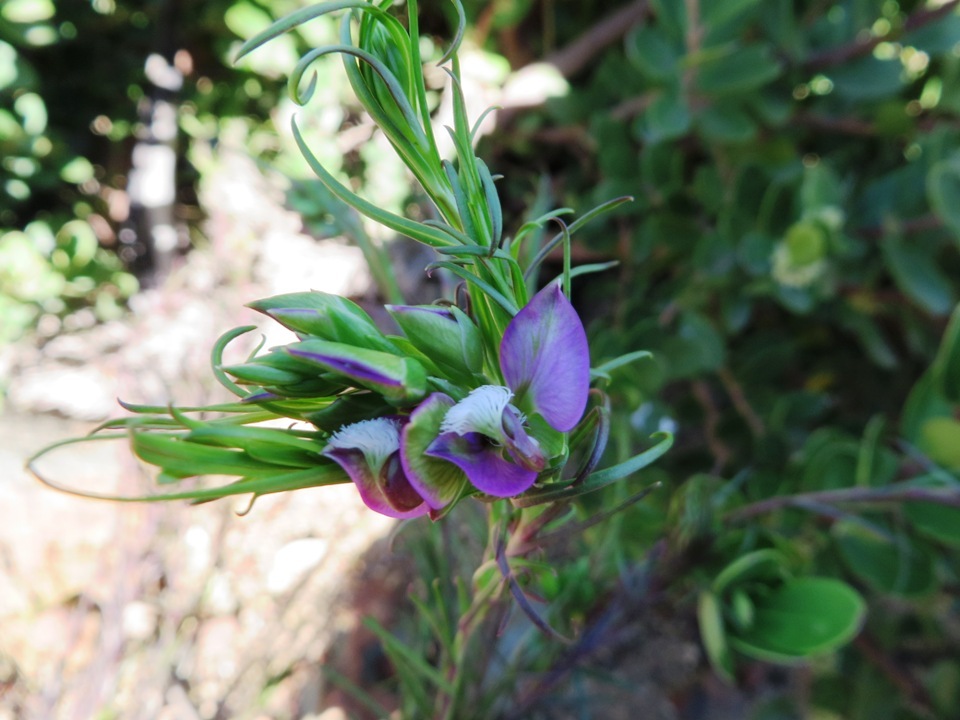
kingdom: Plantae
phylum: Tracheophyta
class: Magnoliopsida
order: Fabales
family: Polygalaceae
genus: Polygala
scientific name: Polygala bracteolata
